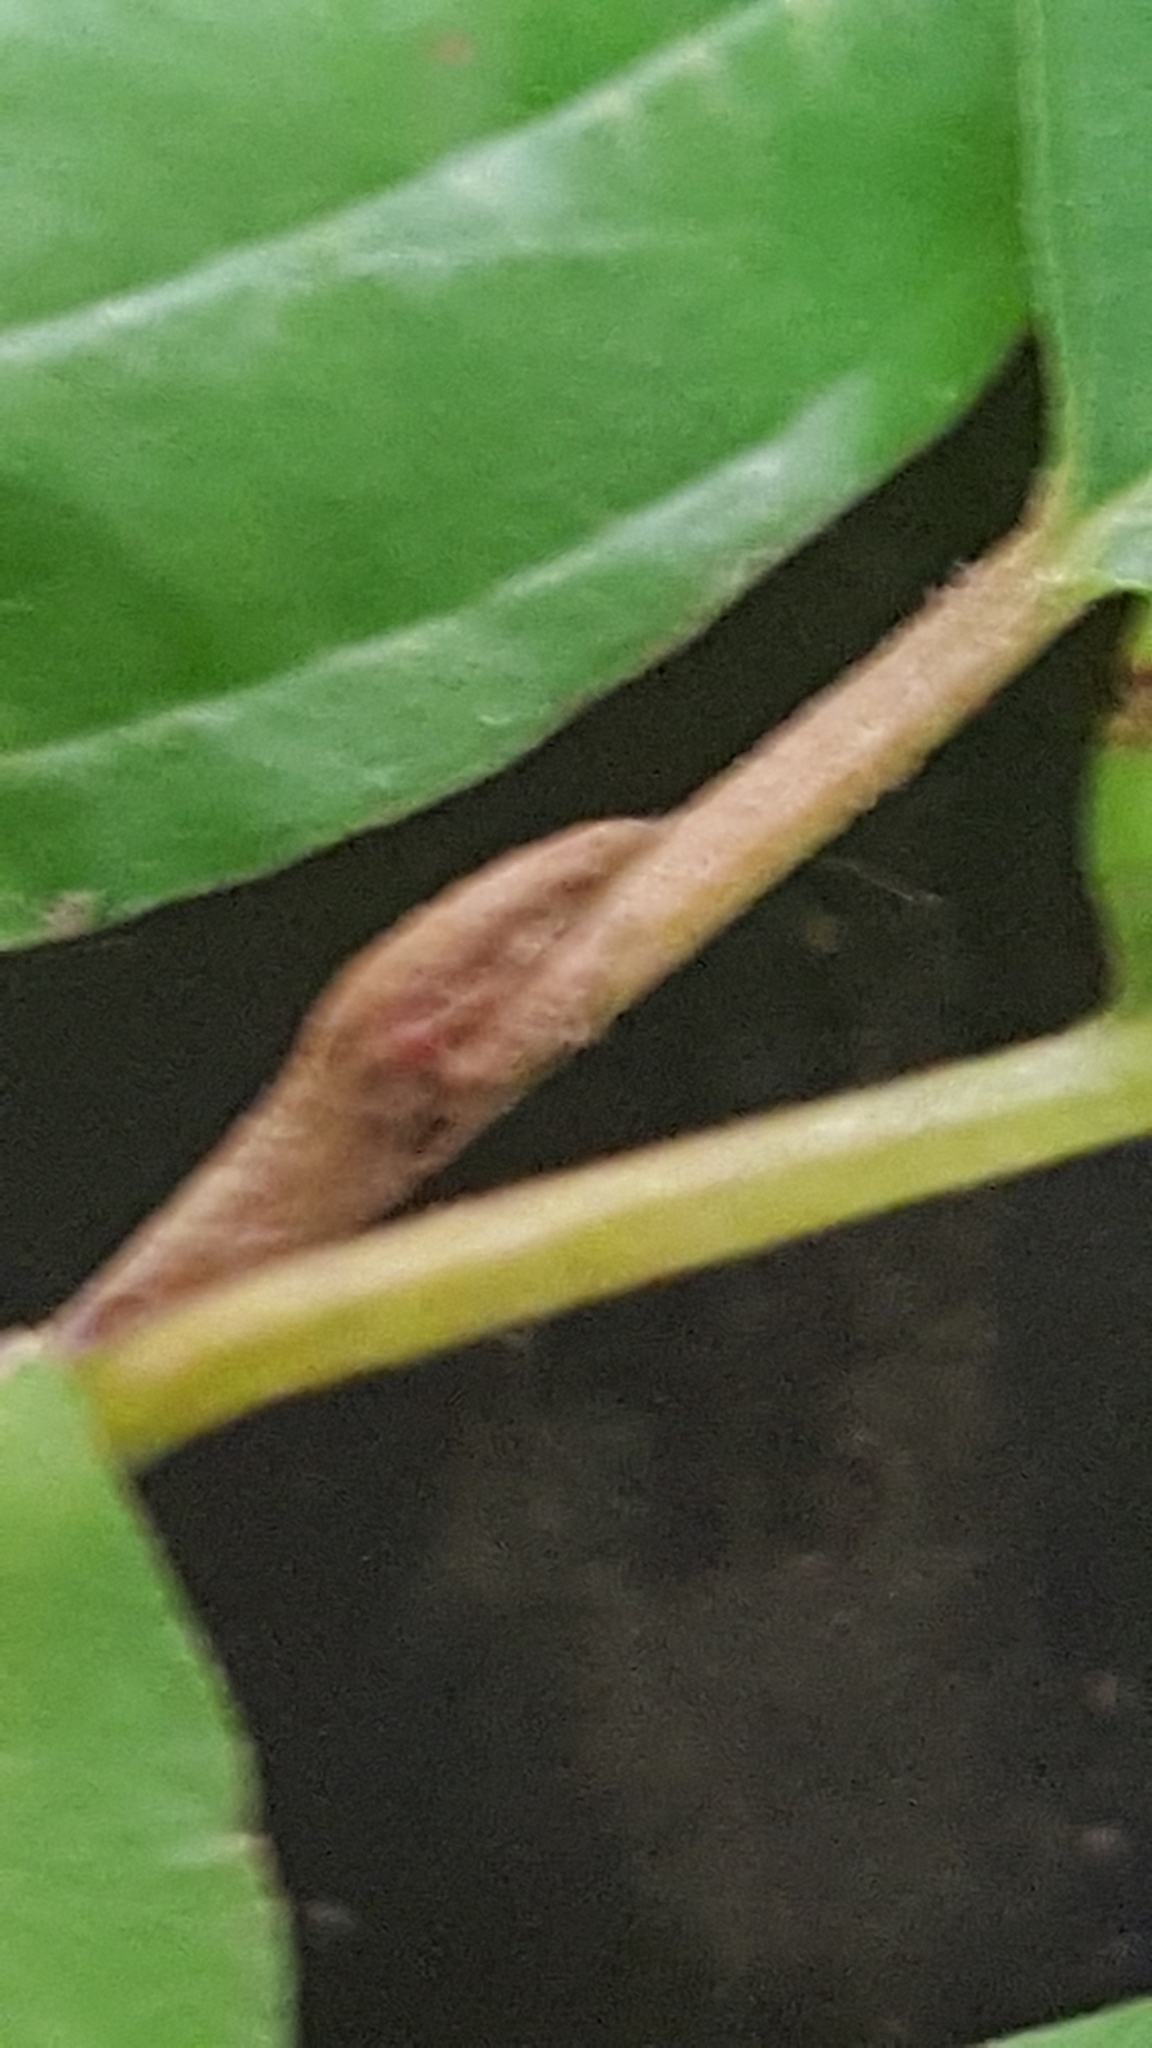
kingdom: Plantae
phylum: Tracheophyta
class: Magnoliopsida
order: Rosales
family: Rhamnaceae
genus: Frangula
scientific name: Frangula alnus
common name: Alder buckthorn
